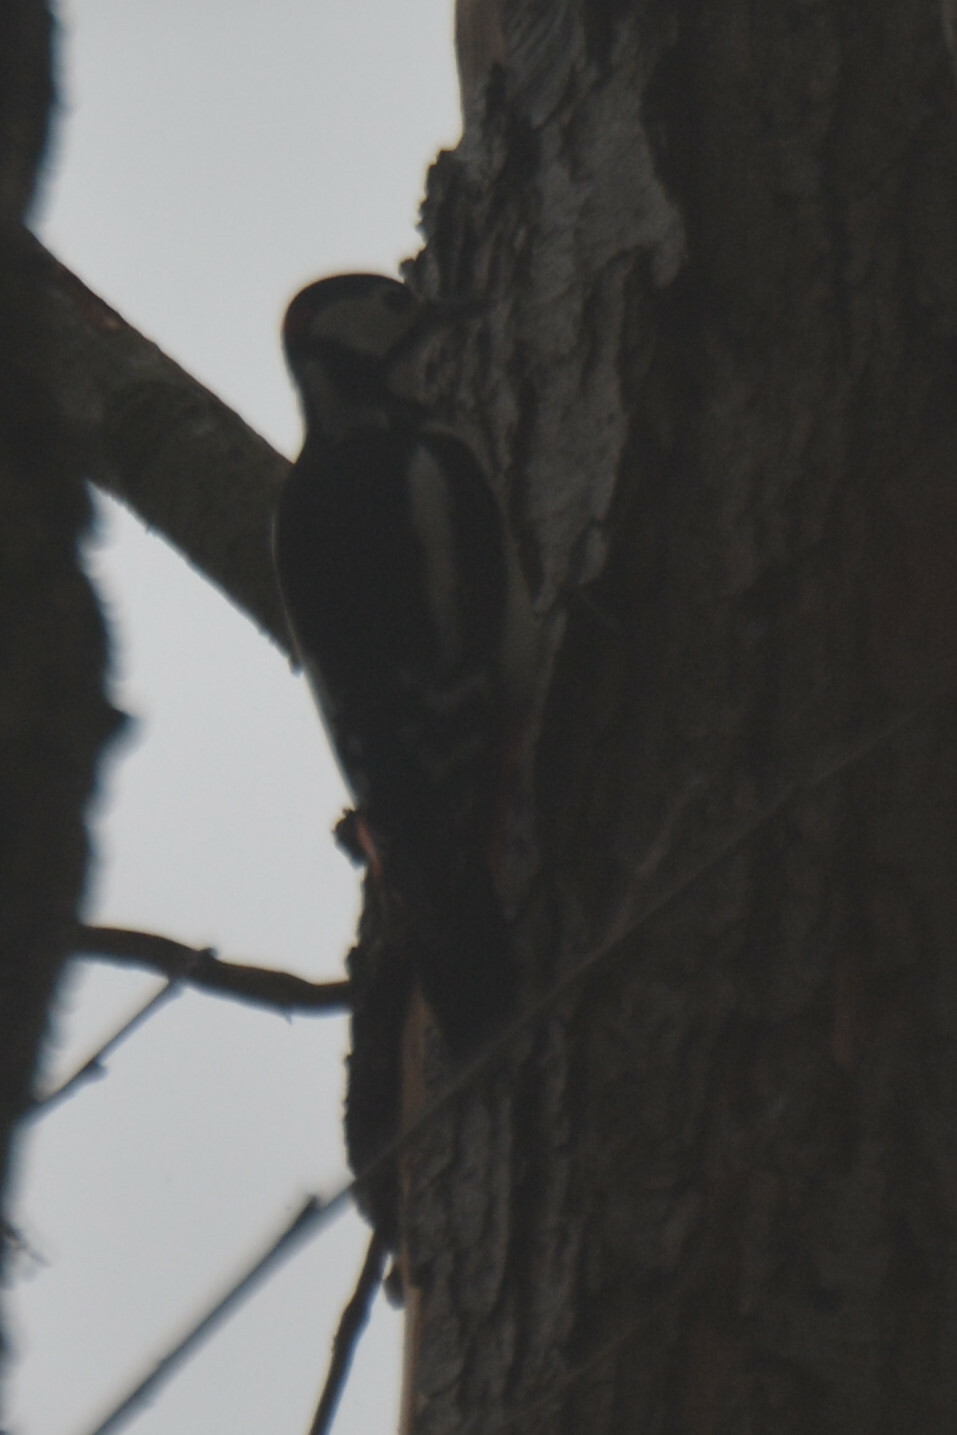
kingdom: Animalia
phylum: Chordata
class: Aves
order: Piciformes
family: Picidae
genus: Dendrocopos
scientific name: Dendrocopos major
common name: Great spotted woodpecker
